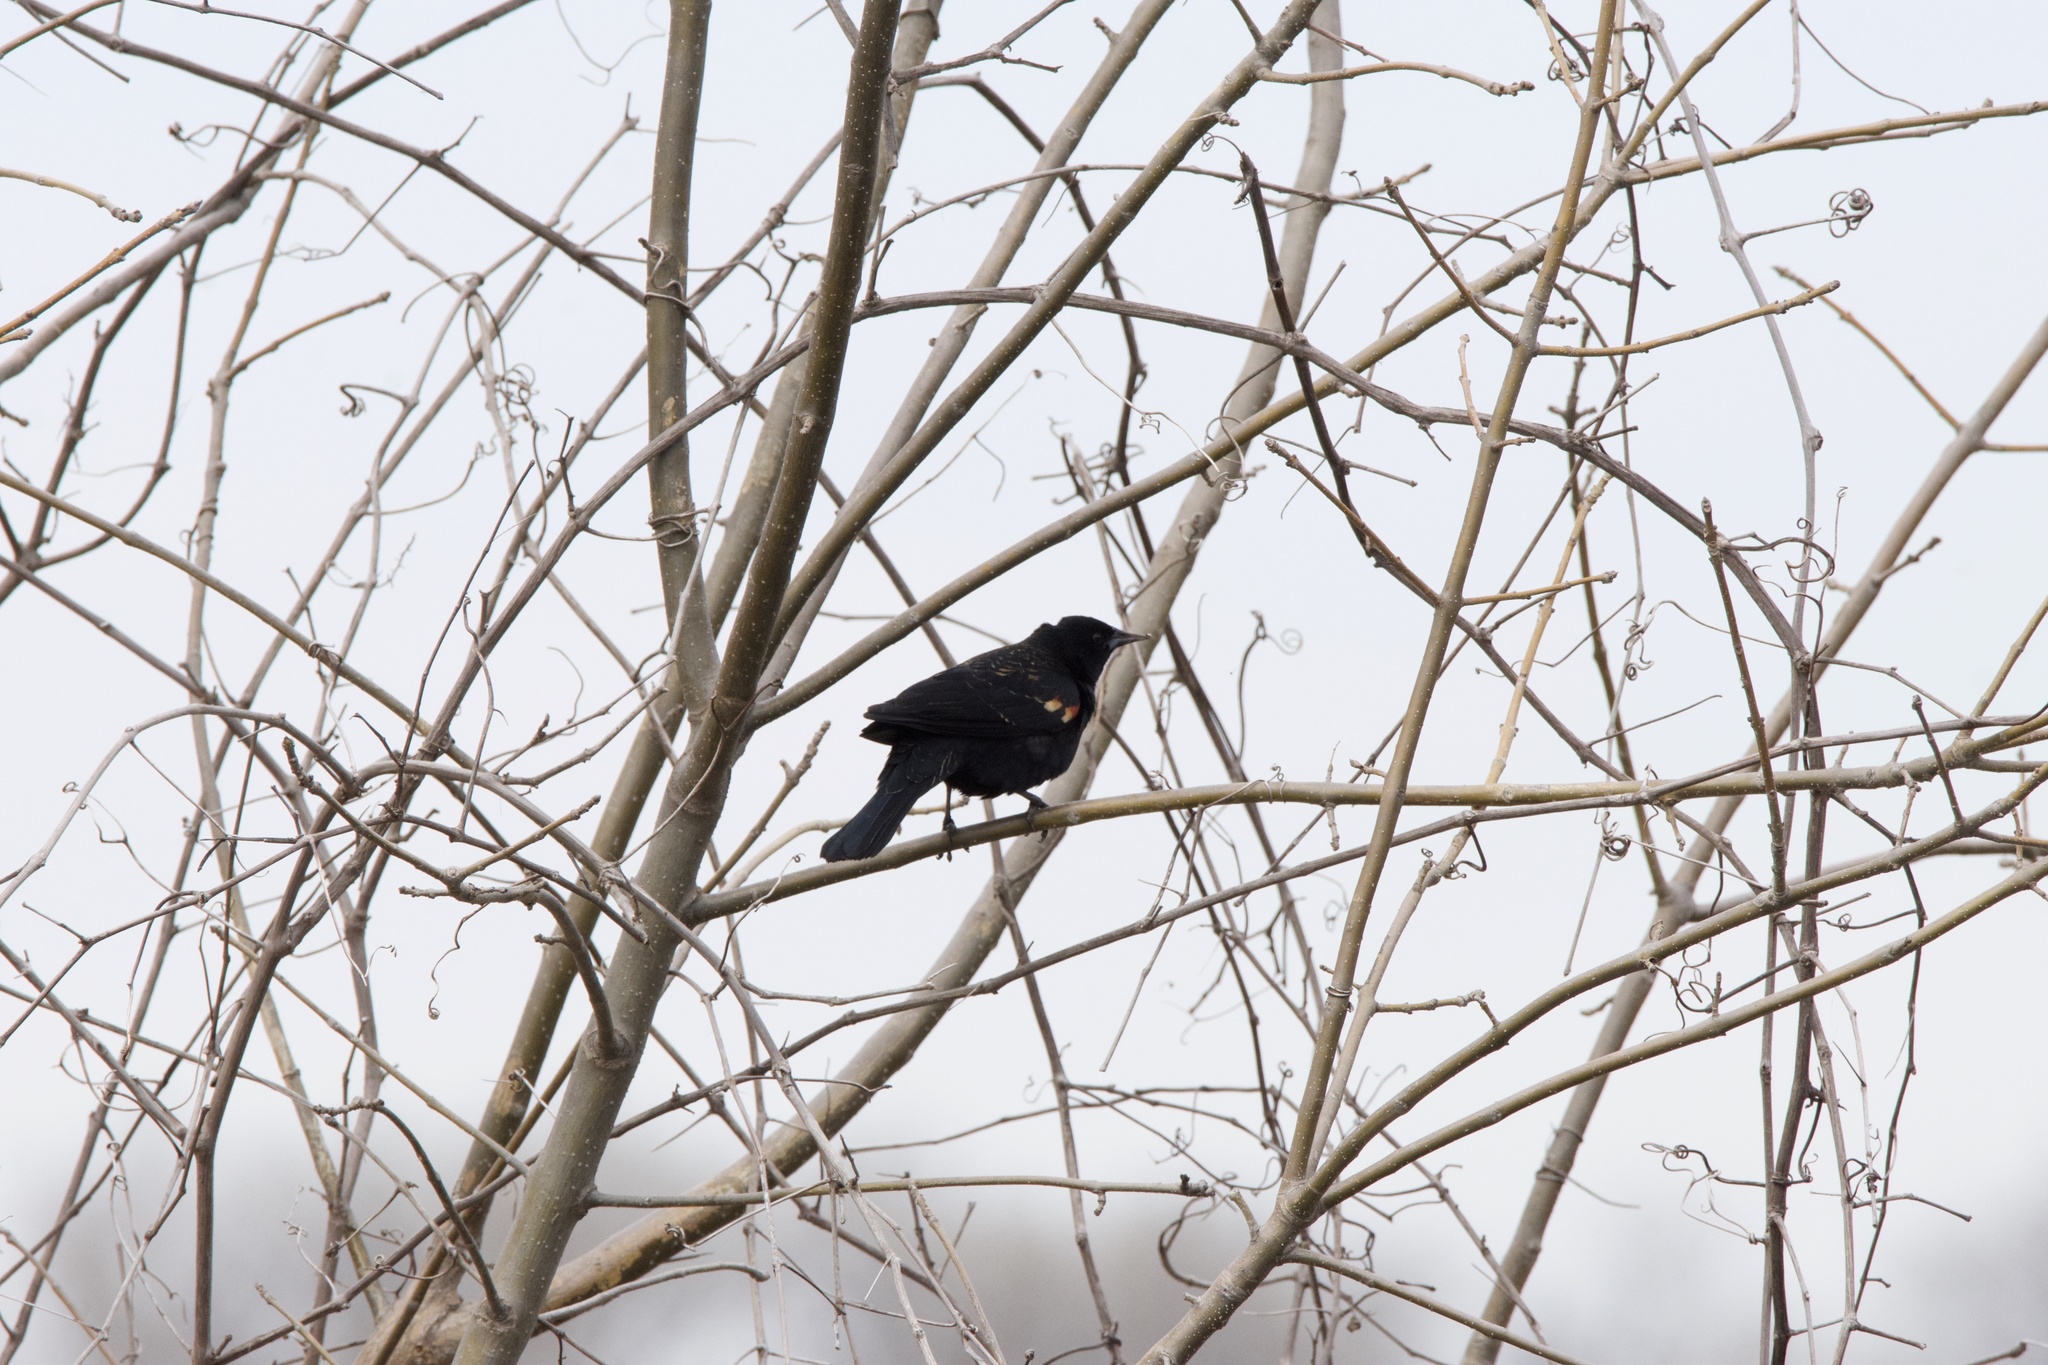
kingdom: Animalia
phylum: Chordata
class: Aves
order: Passeriformes
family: Icteridae
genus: Agelaius
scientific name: Agelaius phoeniceus
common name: Red-winged blackbird
